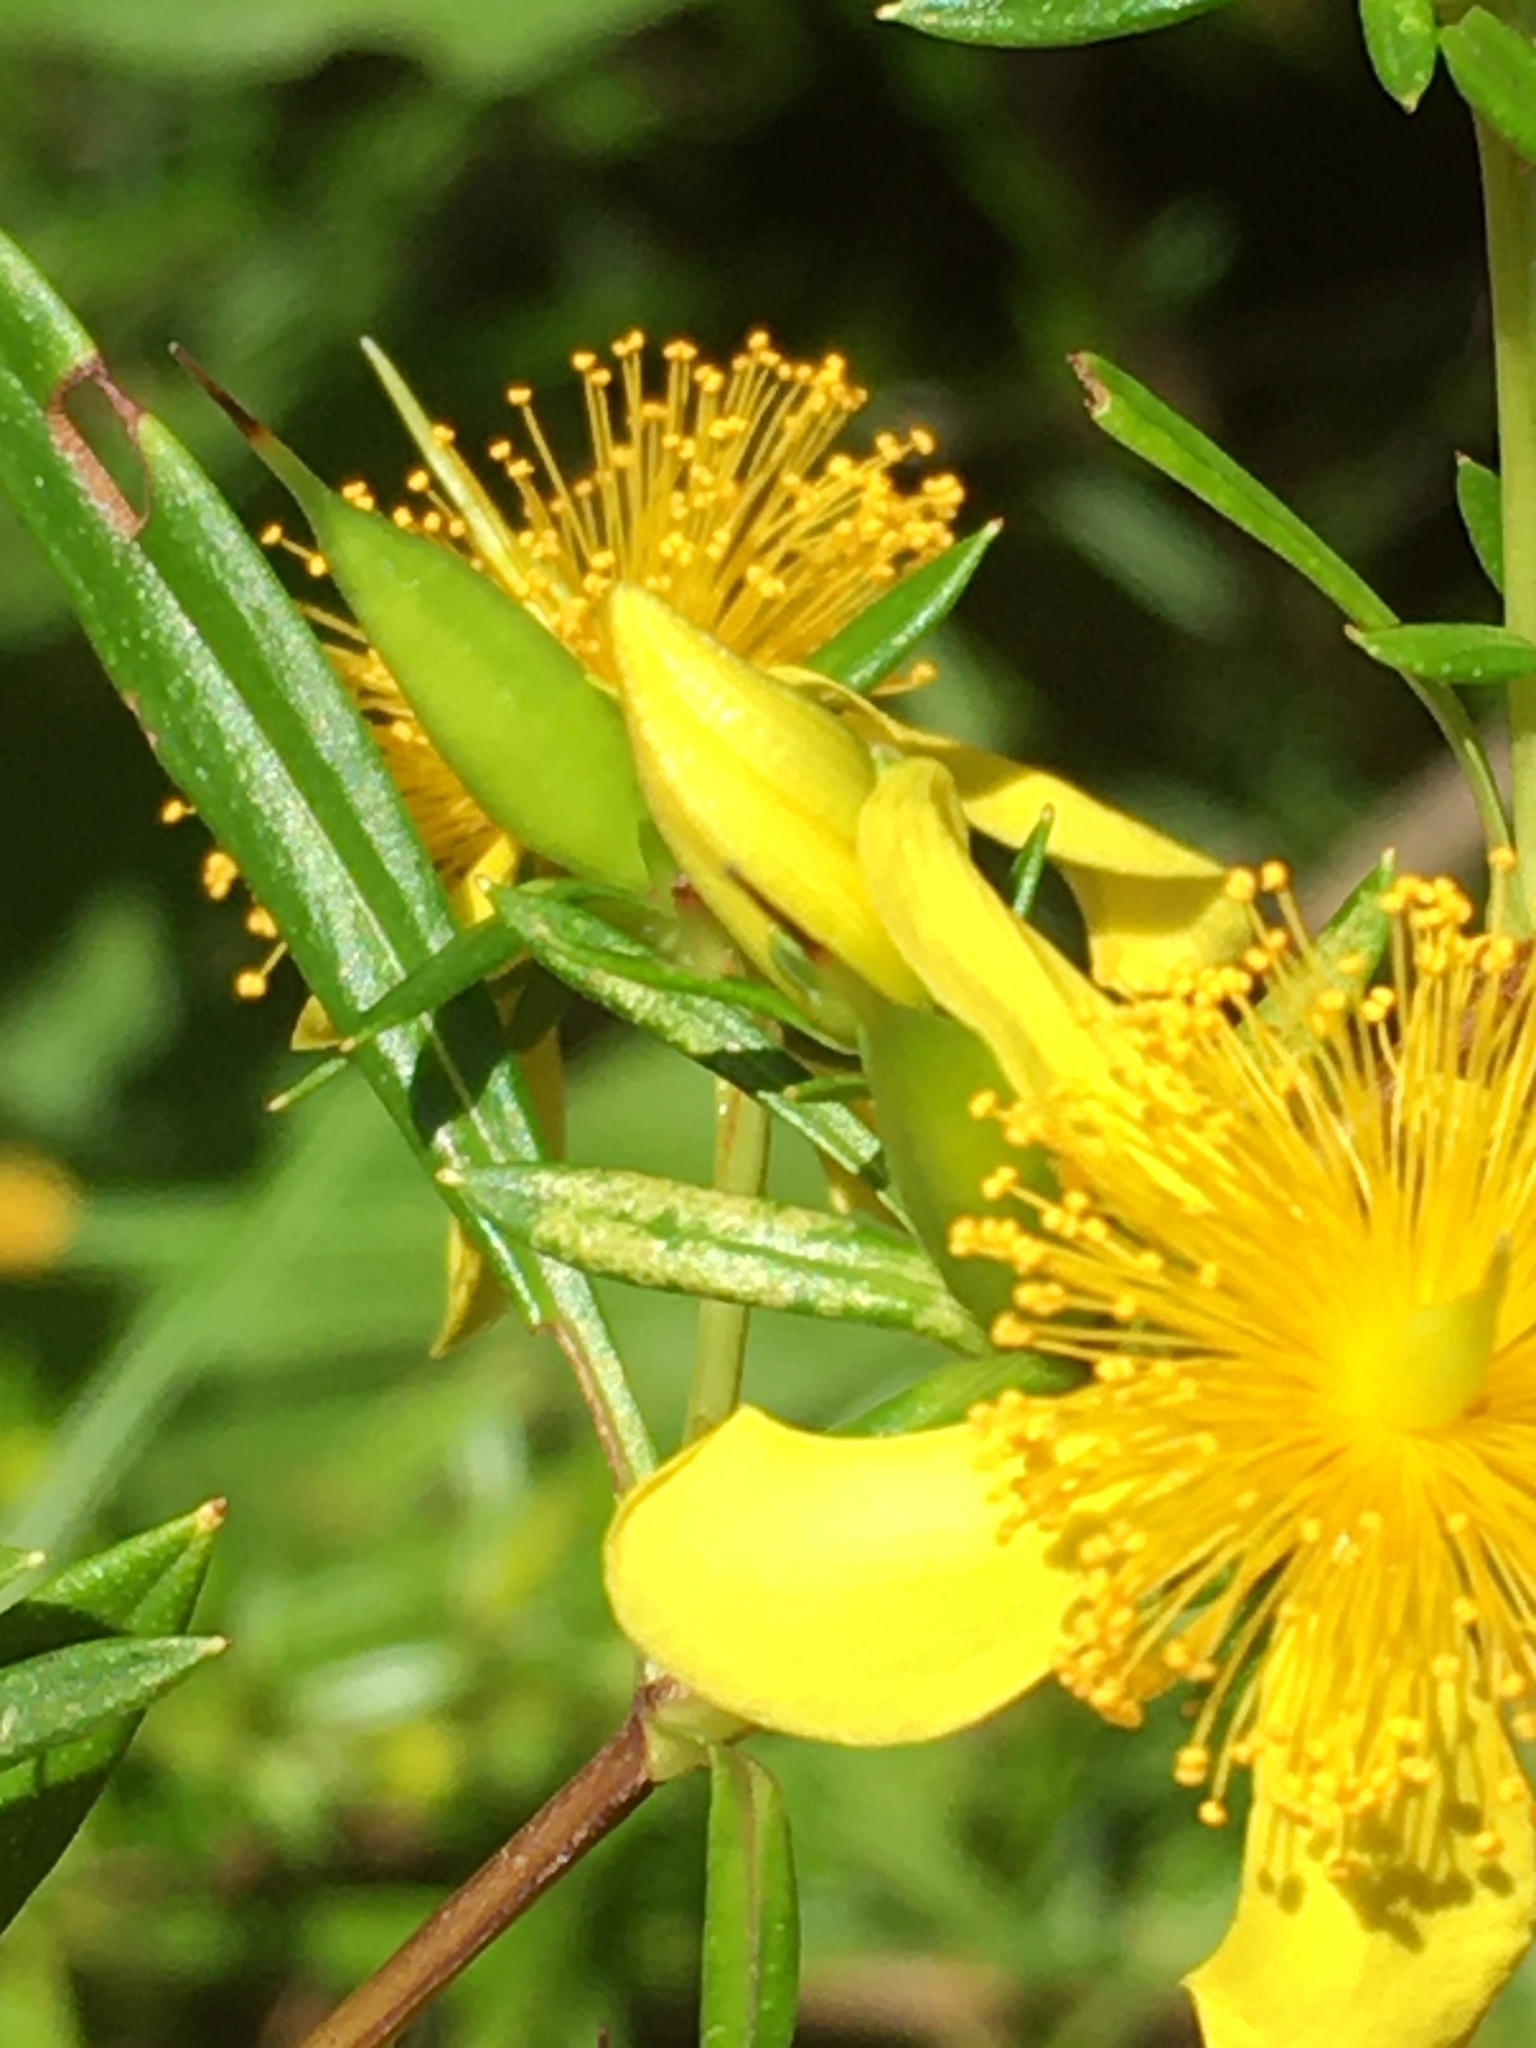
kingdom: Plantae
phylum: Tracheophyta
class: Magnoliopsida
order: Malpighiales
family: Hypericaceae
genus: Hypericum
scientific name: Hypericum prolificum
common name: Shrubby st. john's-wort
